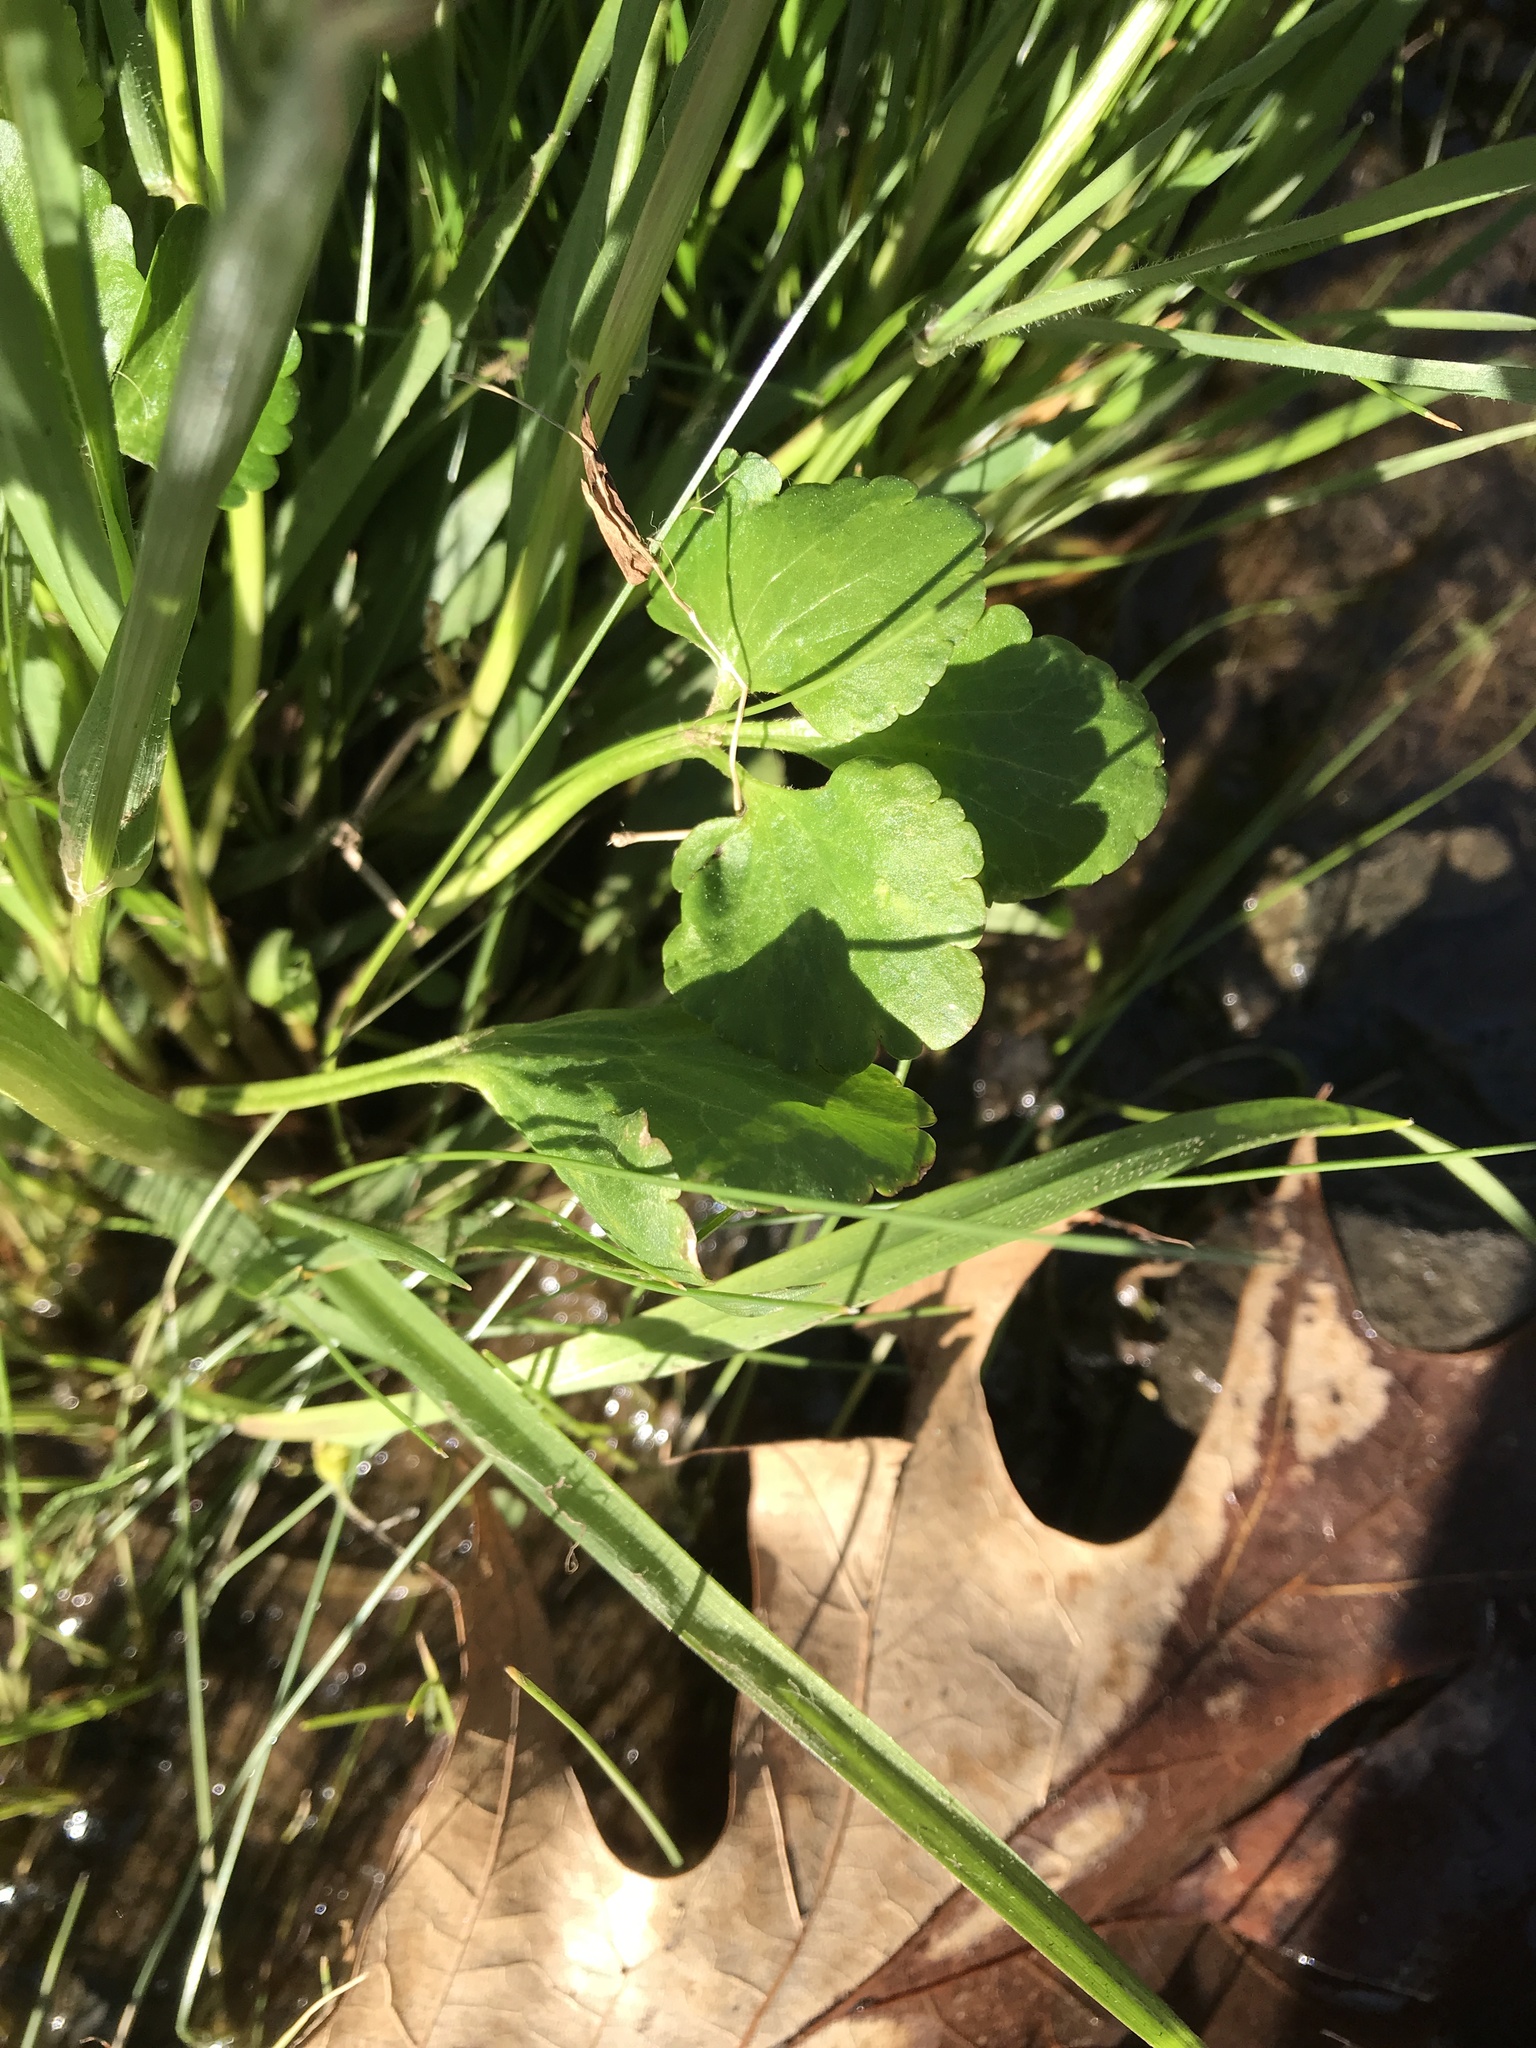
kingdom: Plantae
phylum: Tracheophyta
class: Magnoliopsida
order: Ranunculales
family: Ranunculaceae
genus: Ranunculus
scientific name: Ranunculus abortivus
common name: Early wood buttercup
